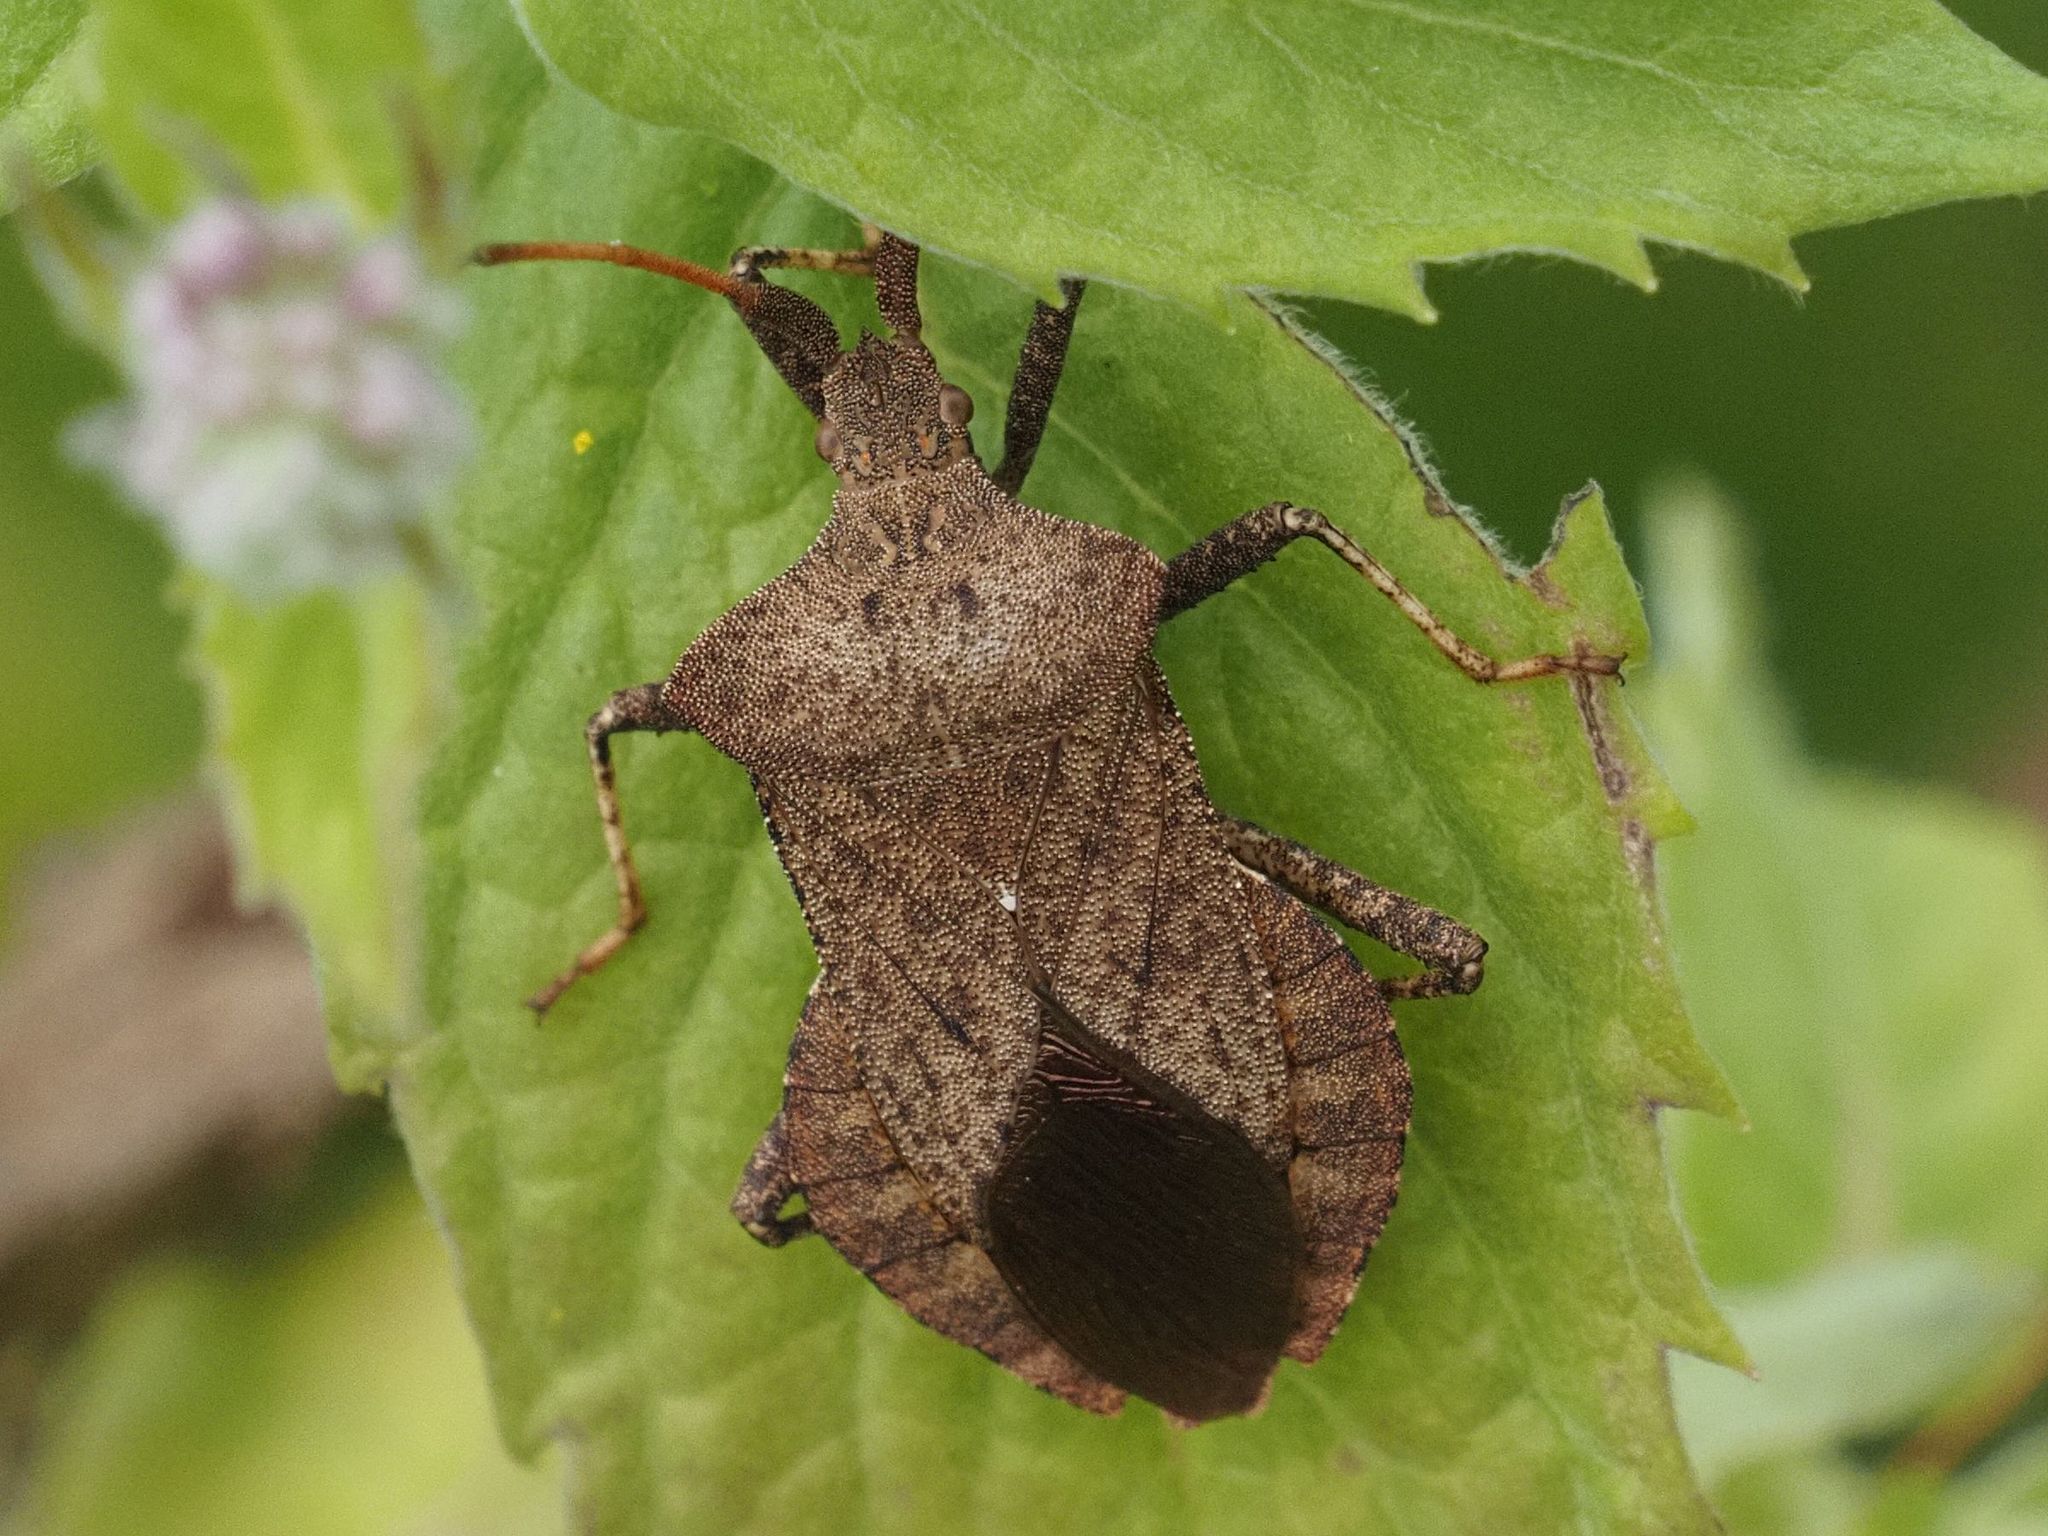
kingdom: Animalia
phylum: Arthropoda
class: Insecta
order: Hemiptera
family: Coreidae
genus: Coreus
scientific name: Coreus marginatus
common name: Dock bug
